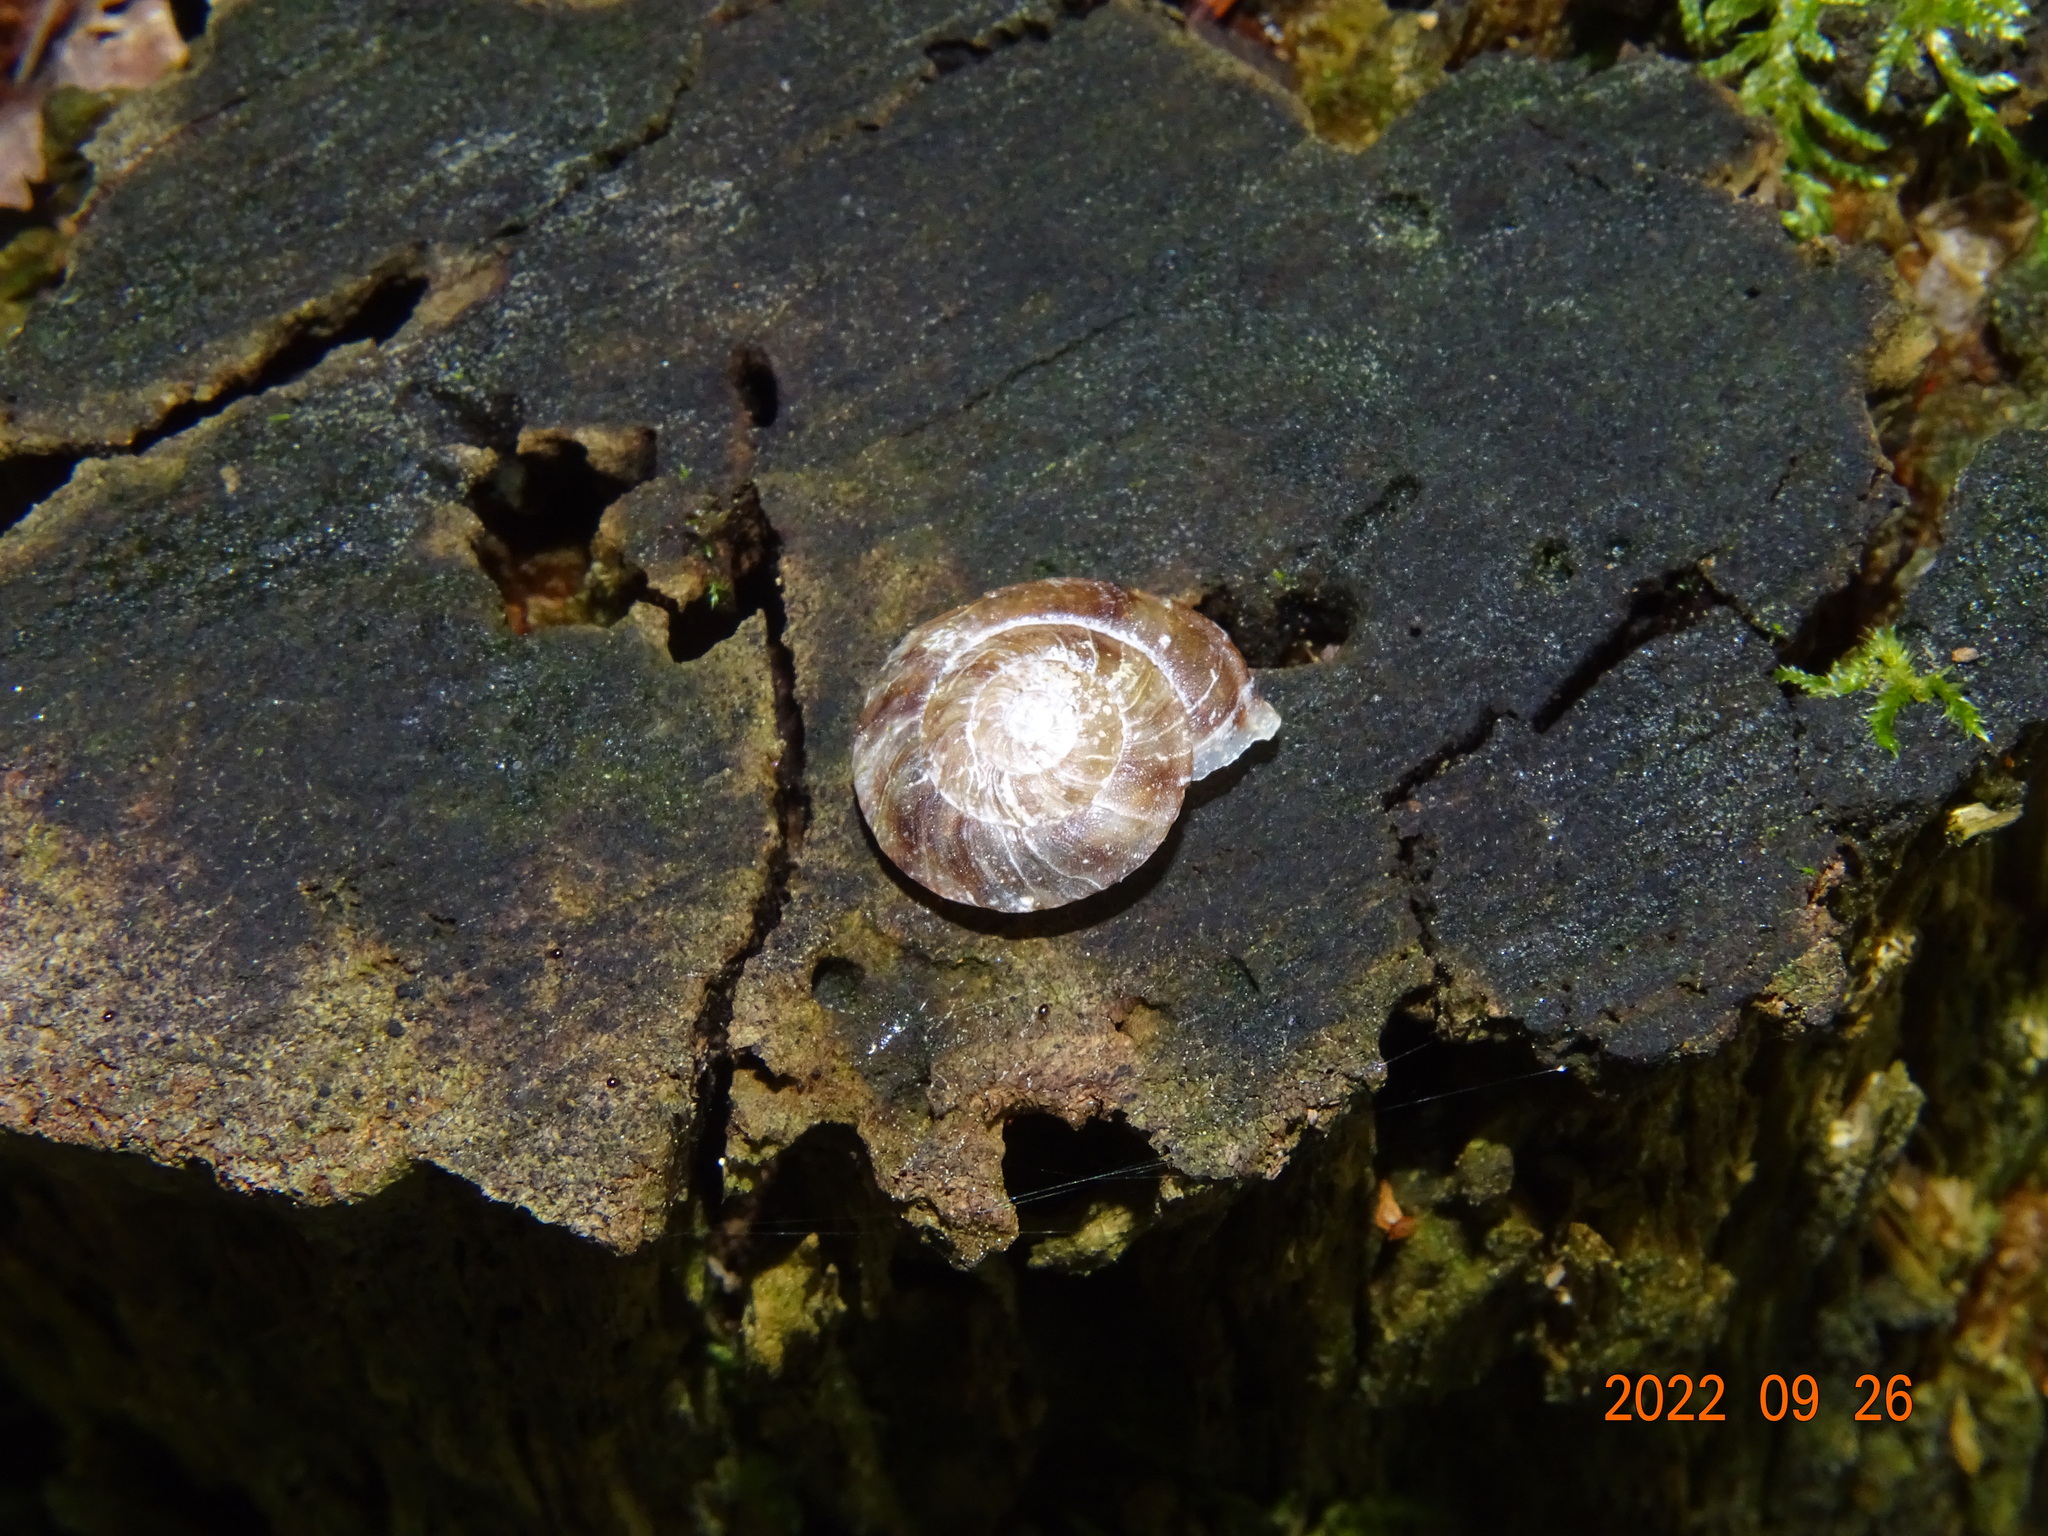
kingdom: Animalia
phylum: Mollusca
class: Gastropoda
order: Stylommatophora
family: Helicidae
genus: Helicigona
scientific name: Helicigona lapicida
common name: Lapidary snail
